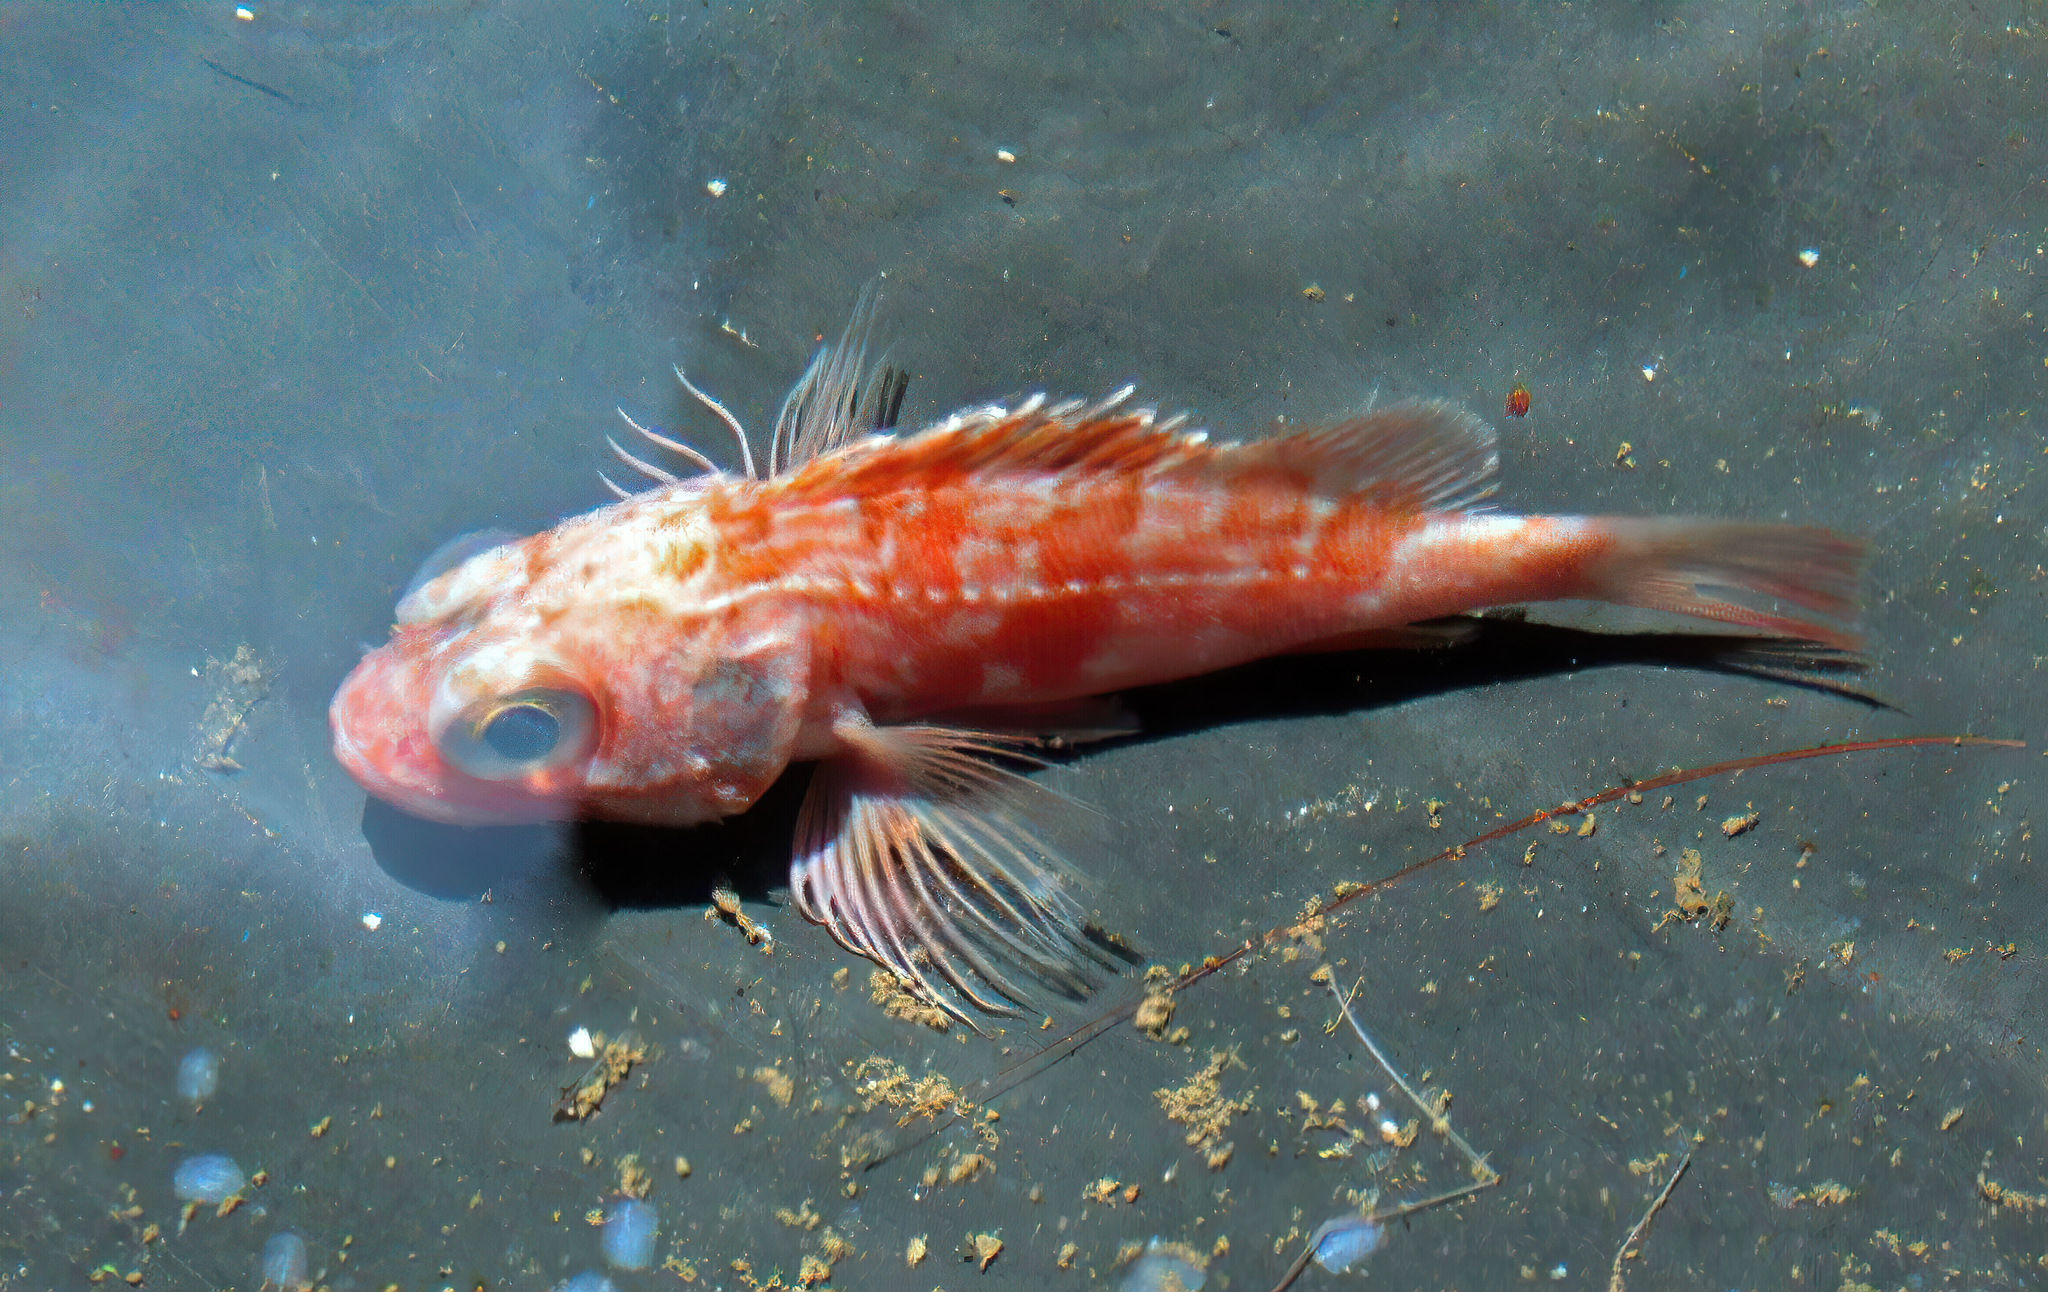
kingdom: Animalia
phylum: Chordata
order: Scorpaeniformes
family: Sebastidae
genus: Helicolenus
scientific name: Helicolenus dactylopterus
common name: Blackbelly rosefish
